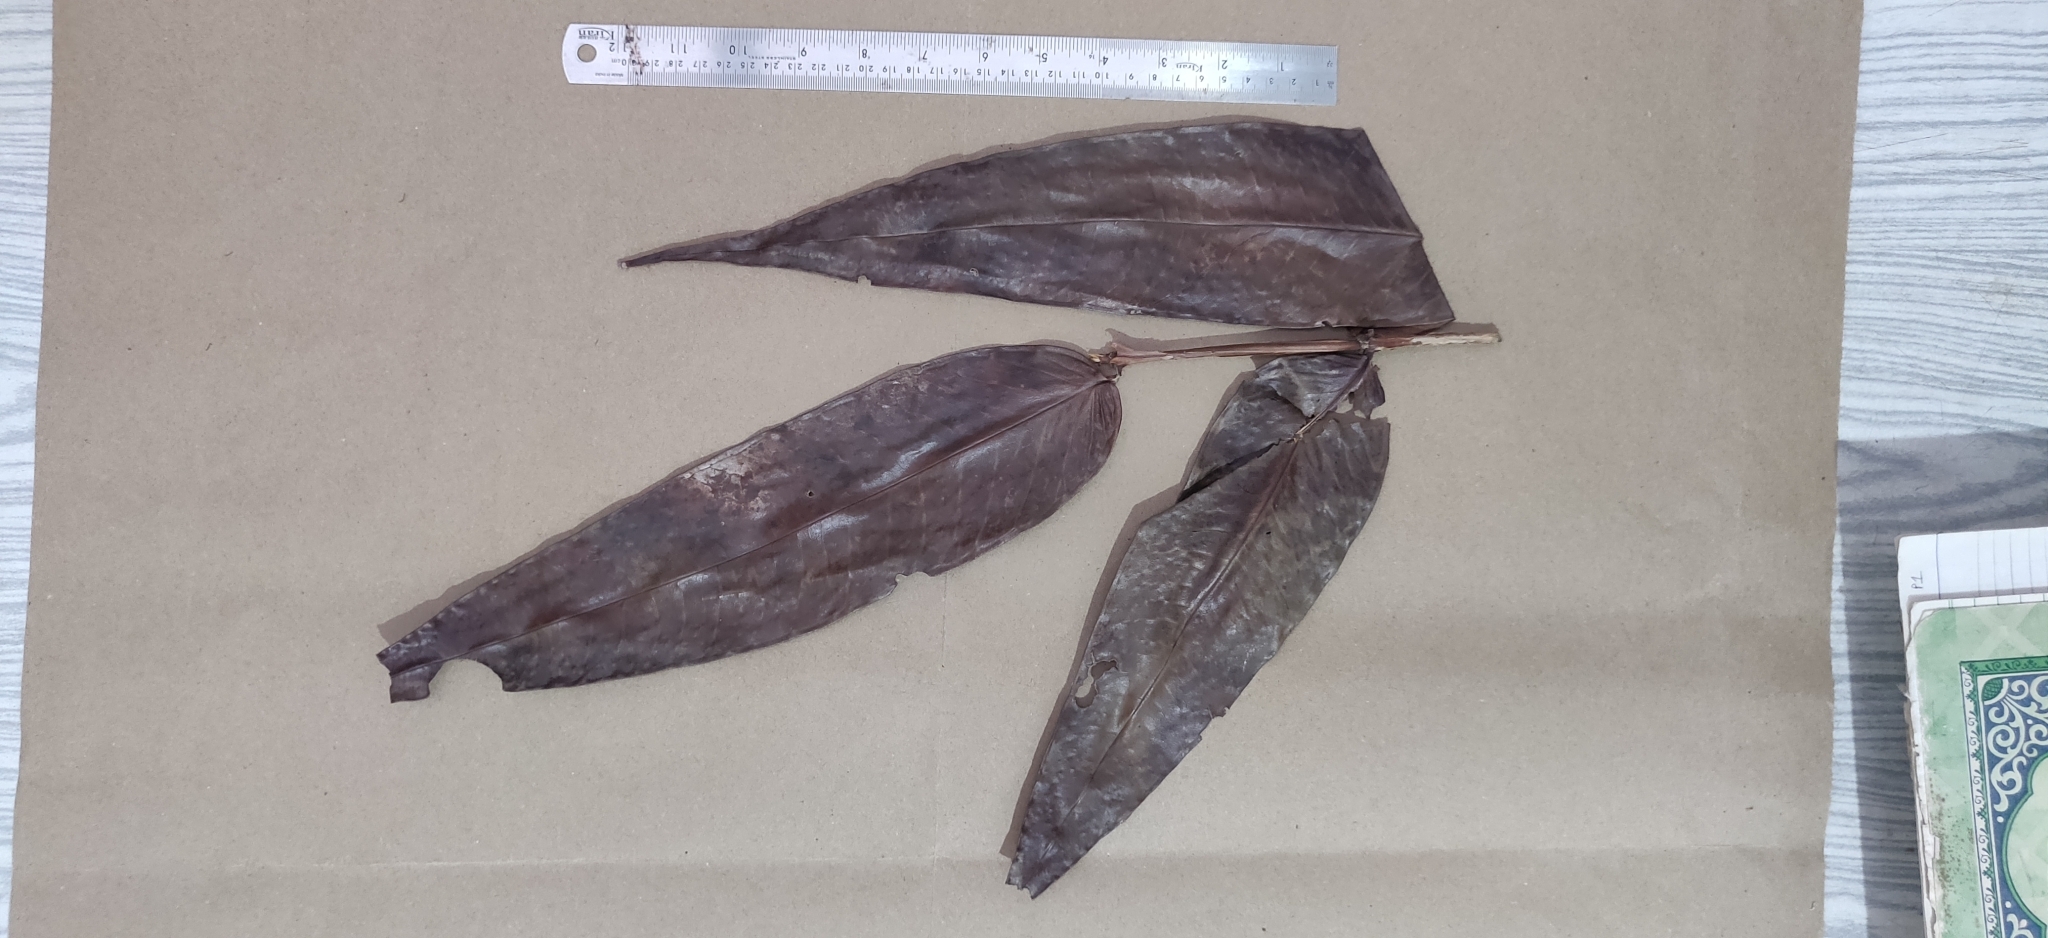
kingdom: Plantae
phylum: Tracheophyta
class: Magnoliopsida
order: Myrtales
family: Myrtaceae
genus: Syzygium
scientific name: Syzygium munronii
